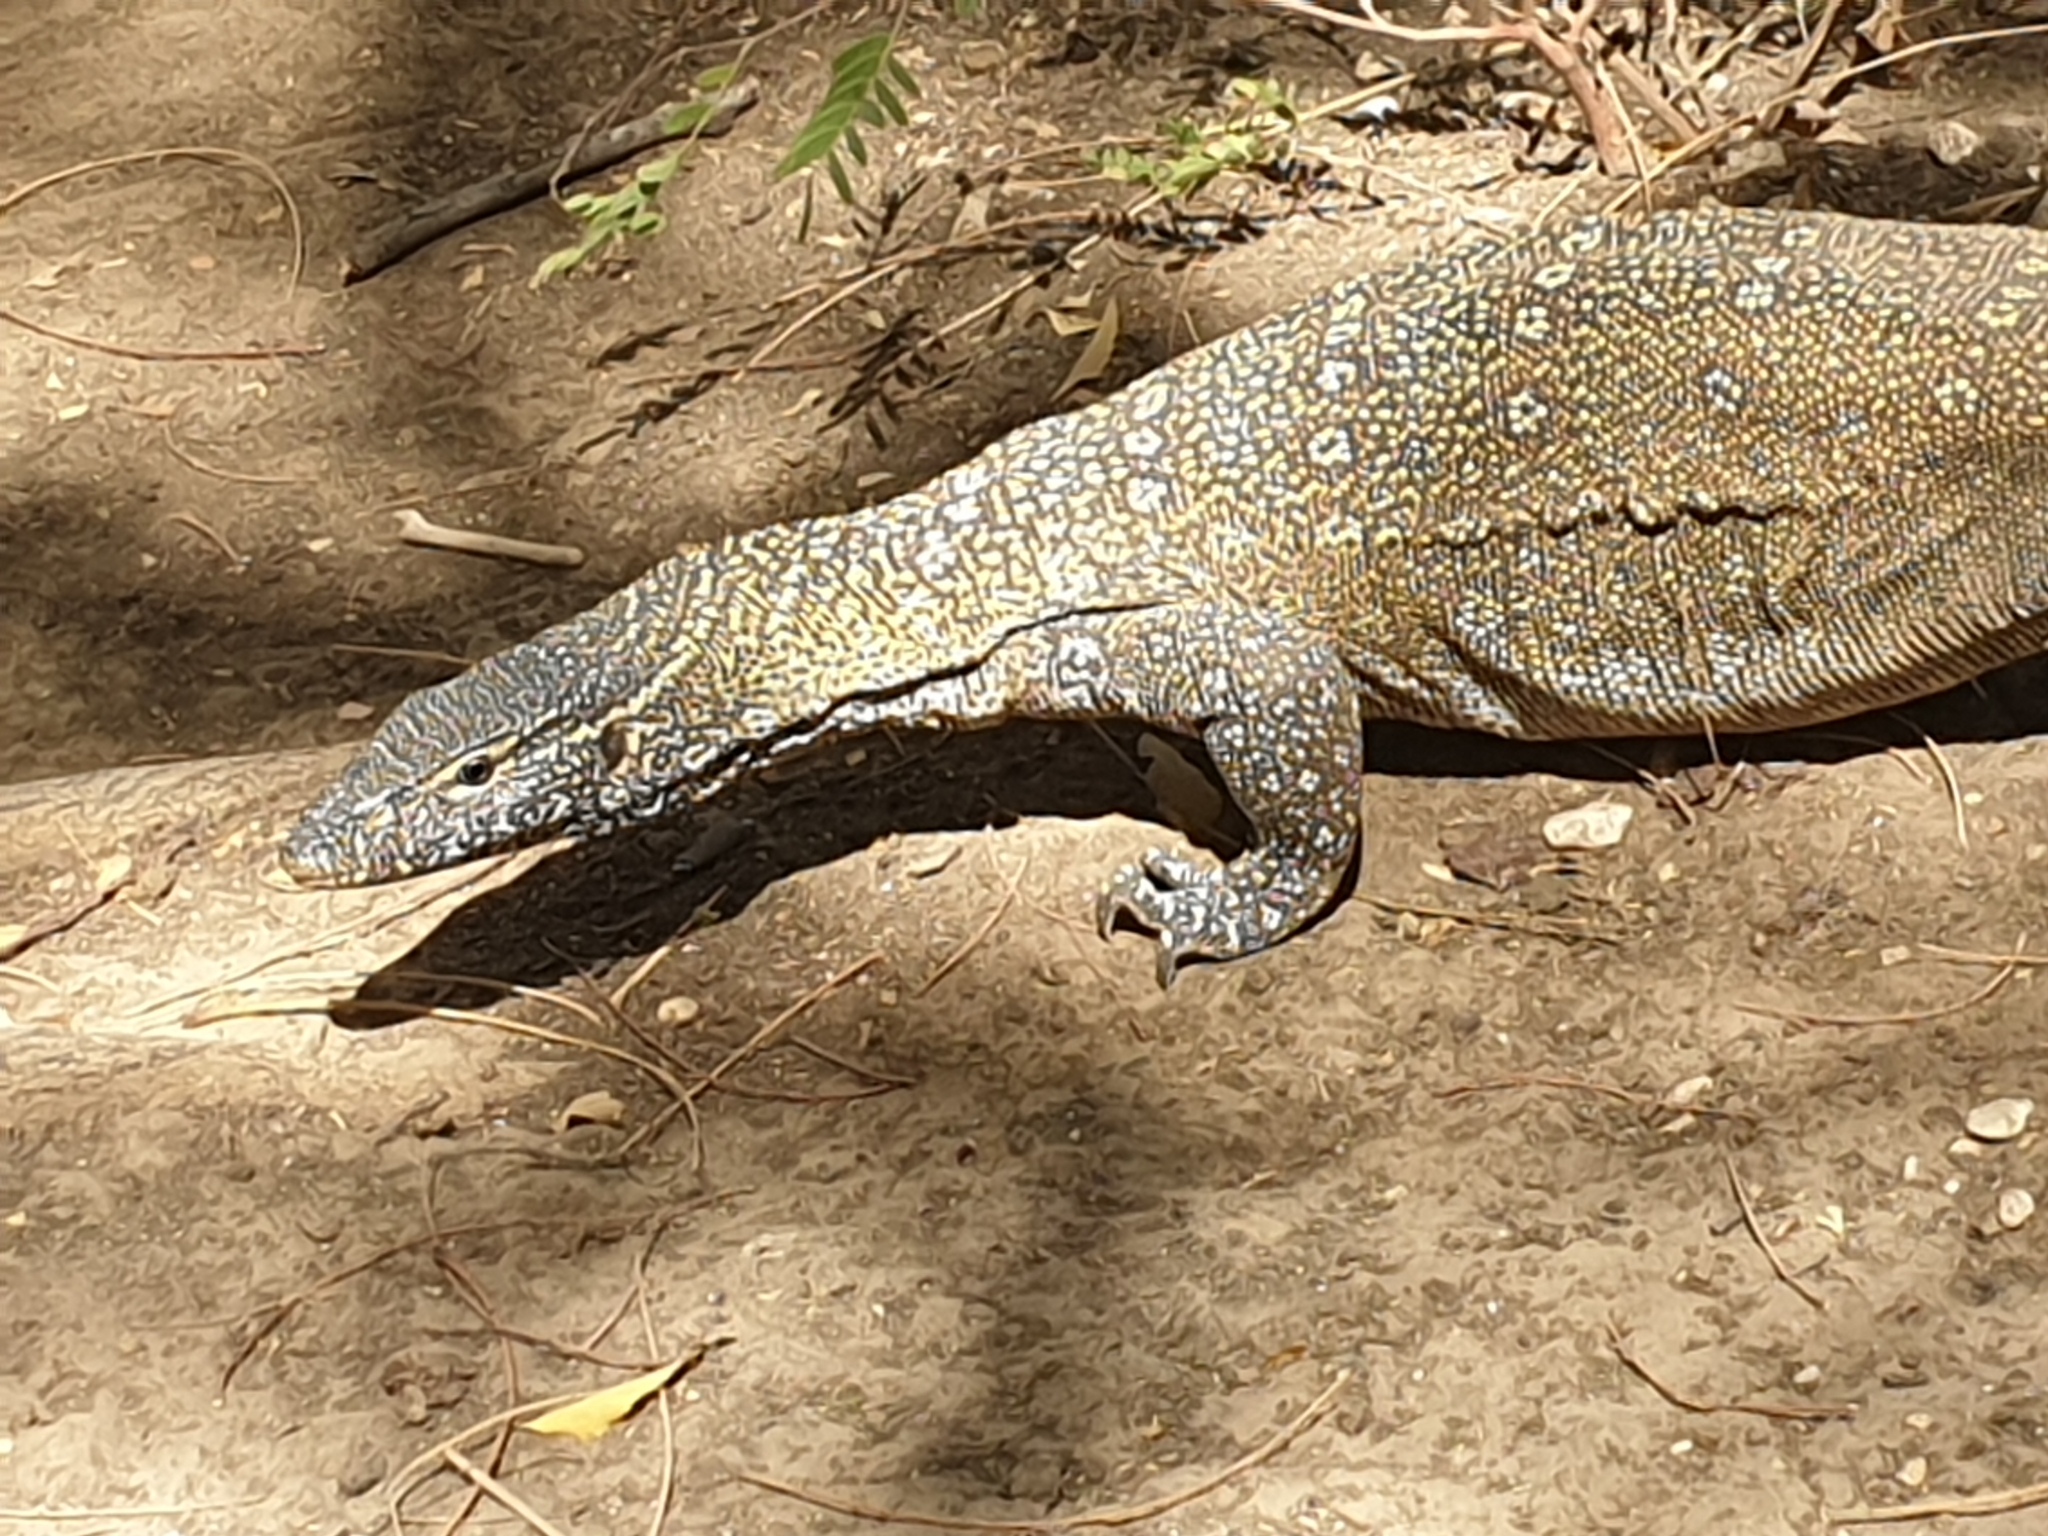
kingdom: Animalia
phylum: Chordata
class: Squamata
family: Varanidae
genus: Varanus
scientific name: Varanus niloticus
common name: Nile monitor
